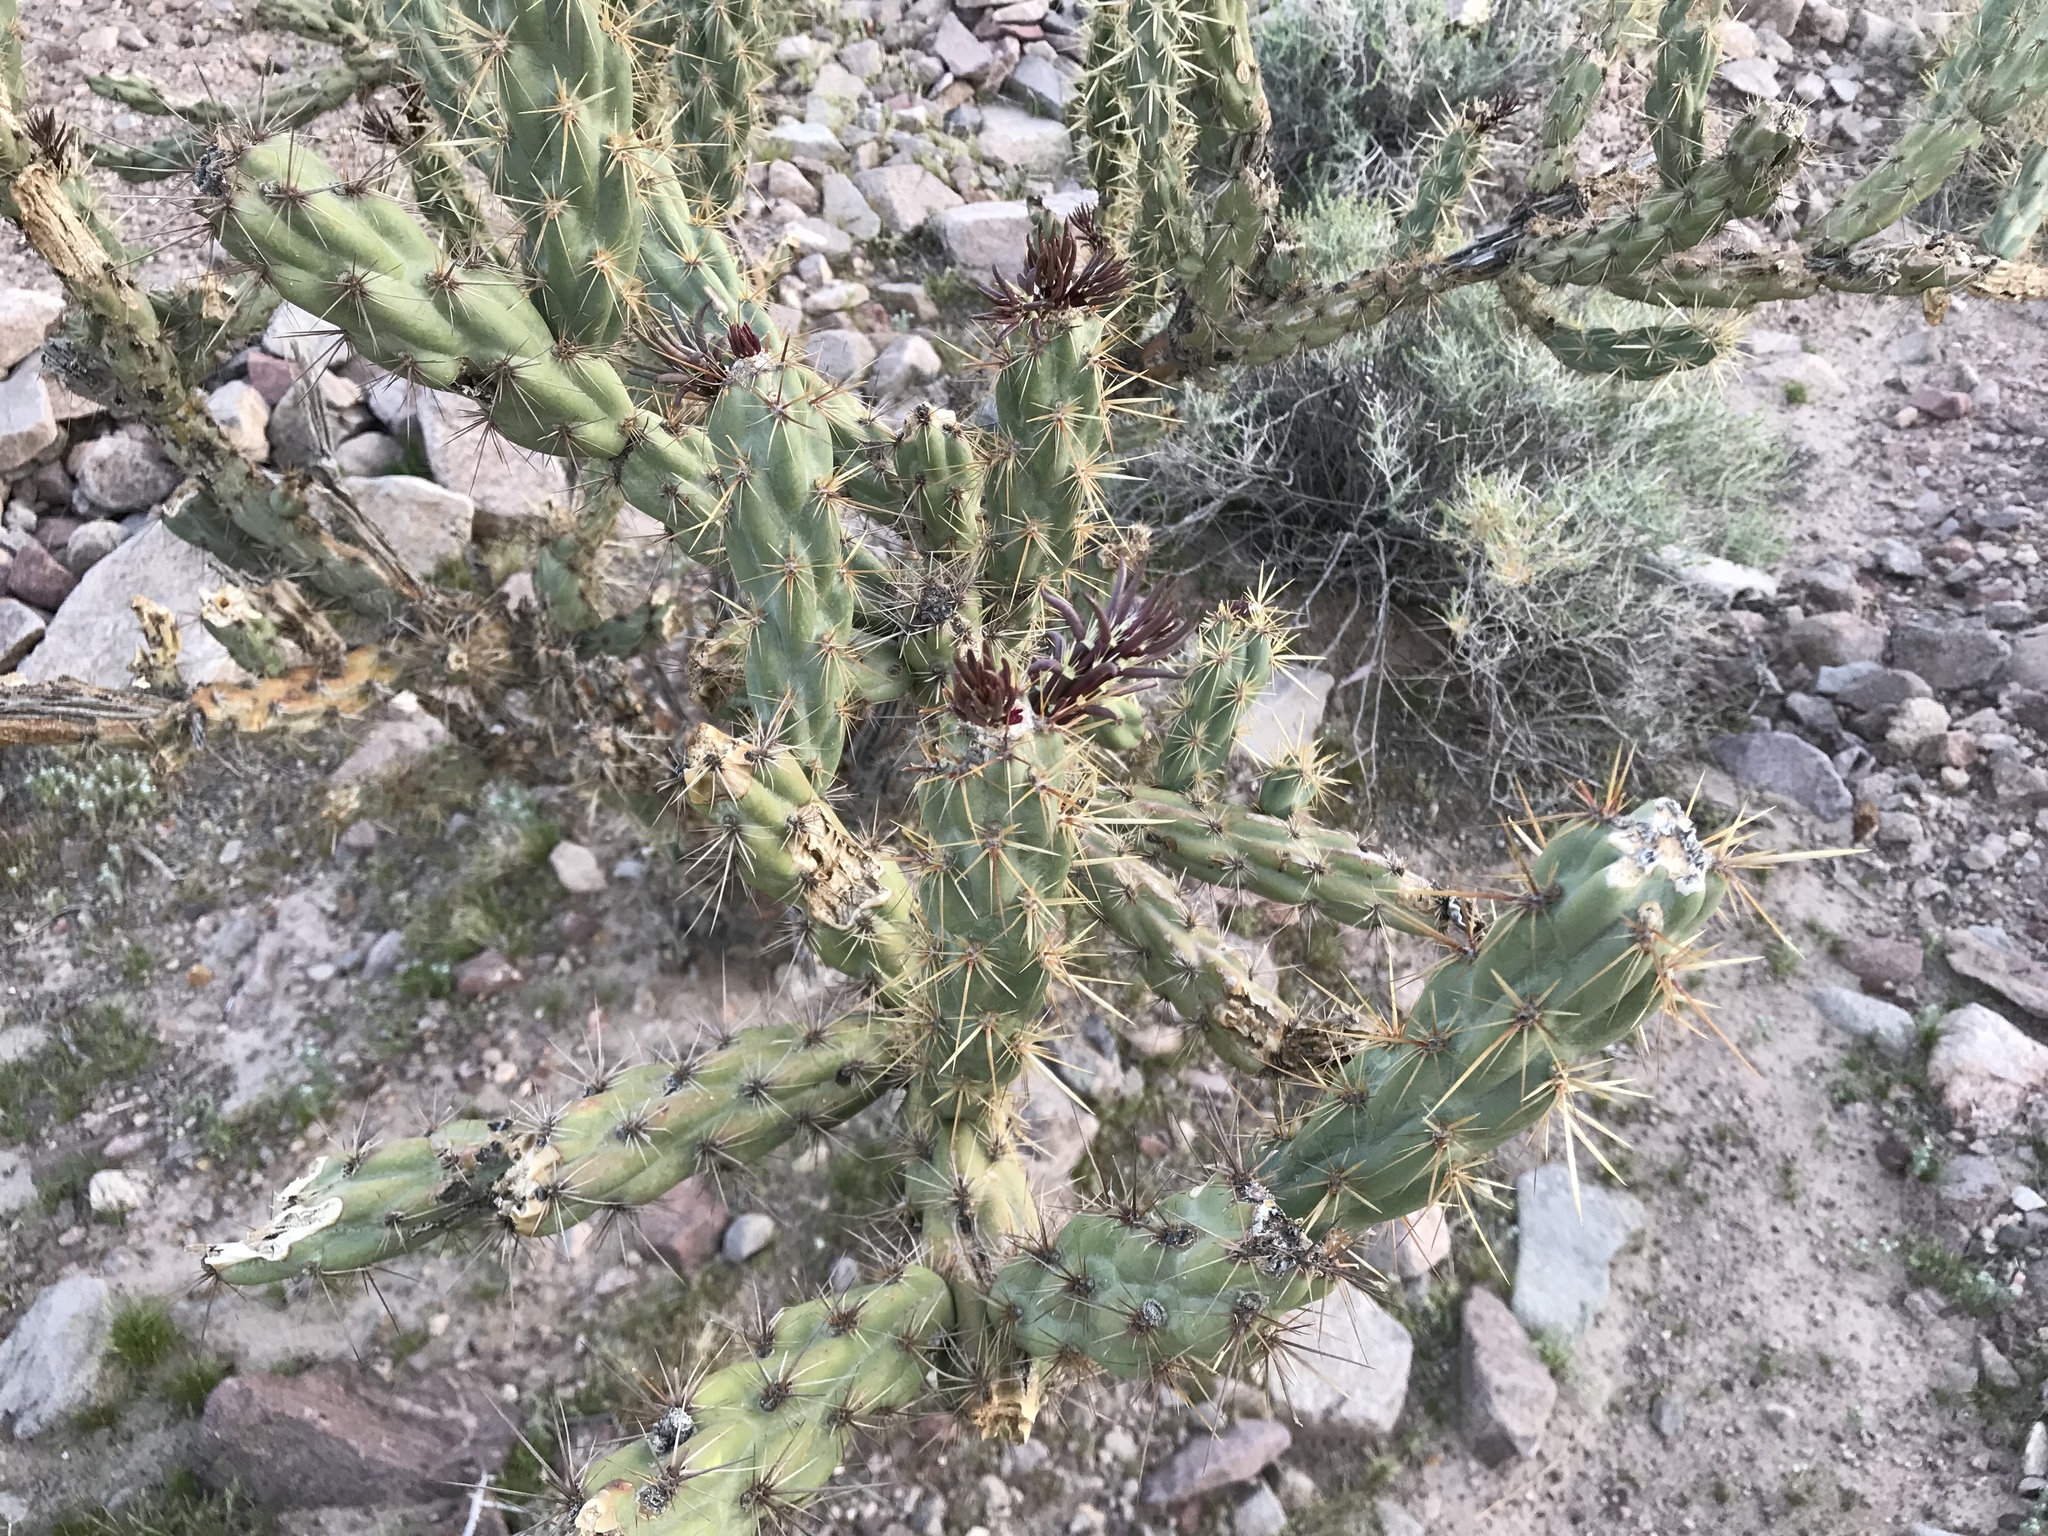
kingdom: Plantae
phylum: Tracheophyta
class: Magnoliopsida
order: Caryophyllales
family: Cactaceae
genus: Cylindropuntia
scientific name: Cylindropuntia acanthocarpa
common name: Buckhorn cholla
